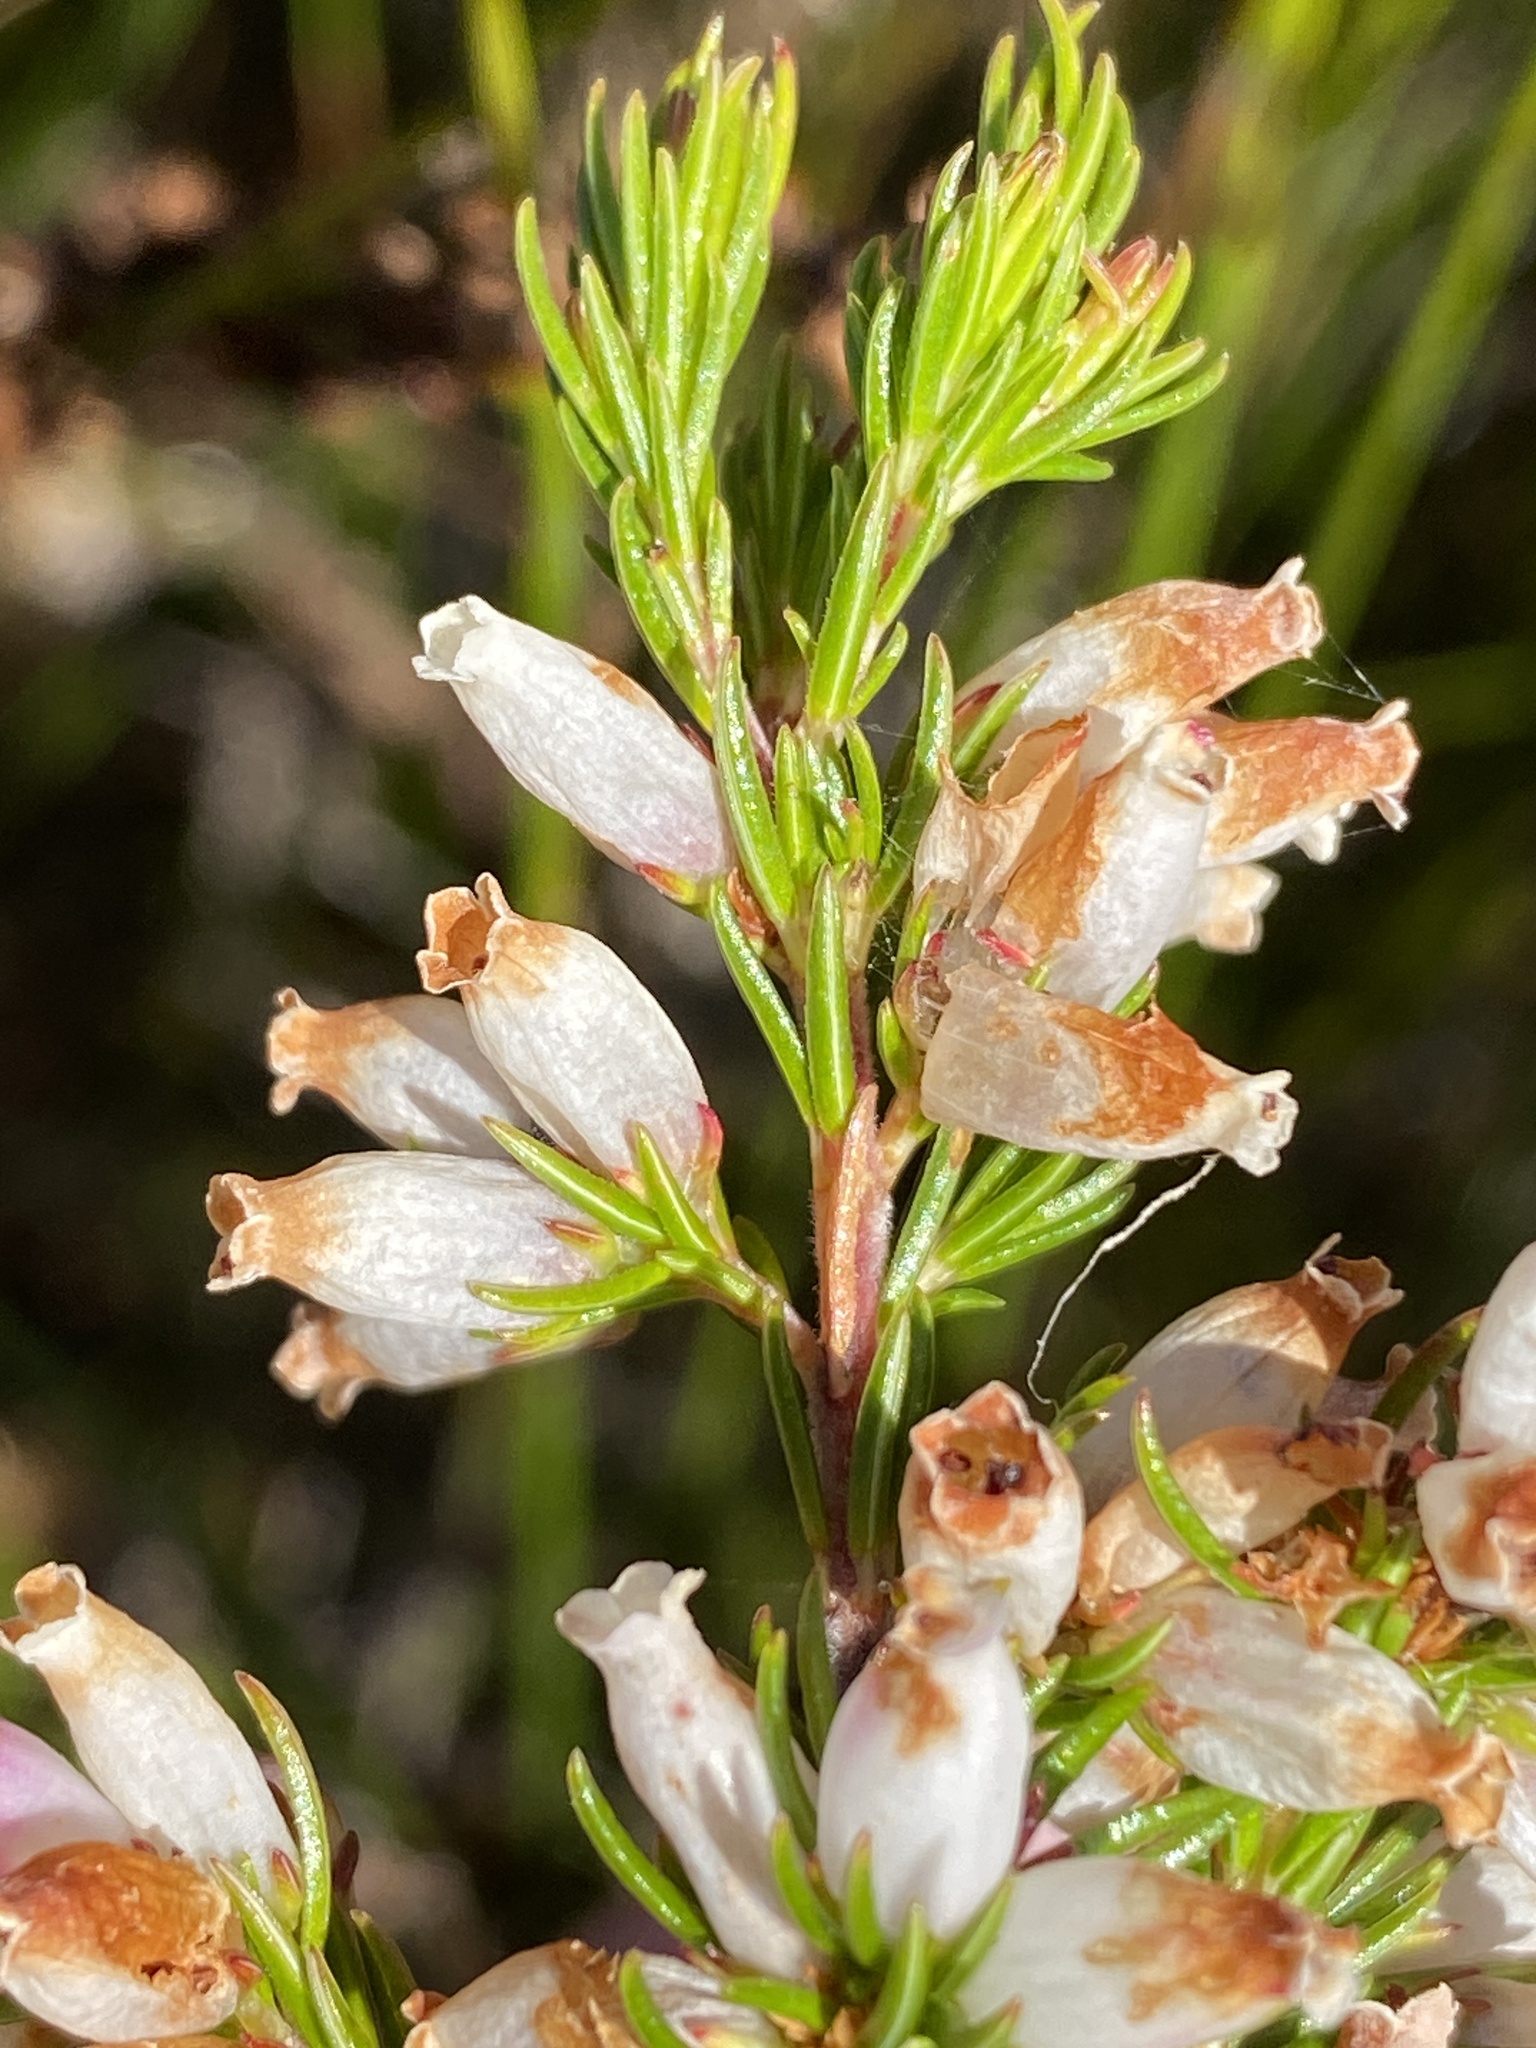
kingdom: Plantae
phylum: Tracheophyta
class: Magnoliopsida
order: Ericales
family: Ericaceae
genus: Erica
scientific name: Erica sitiens
